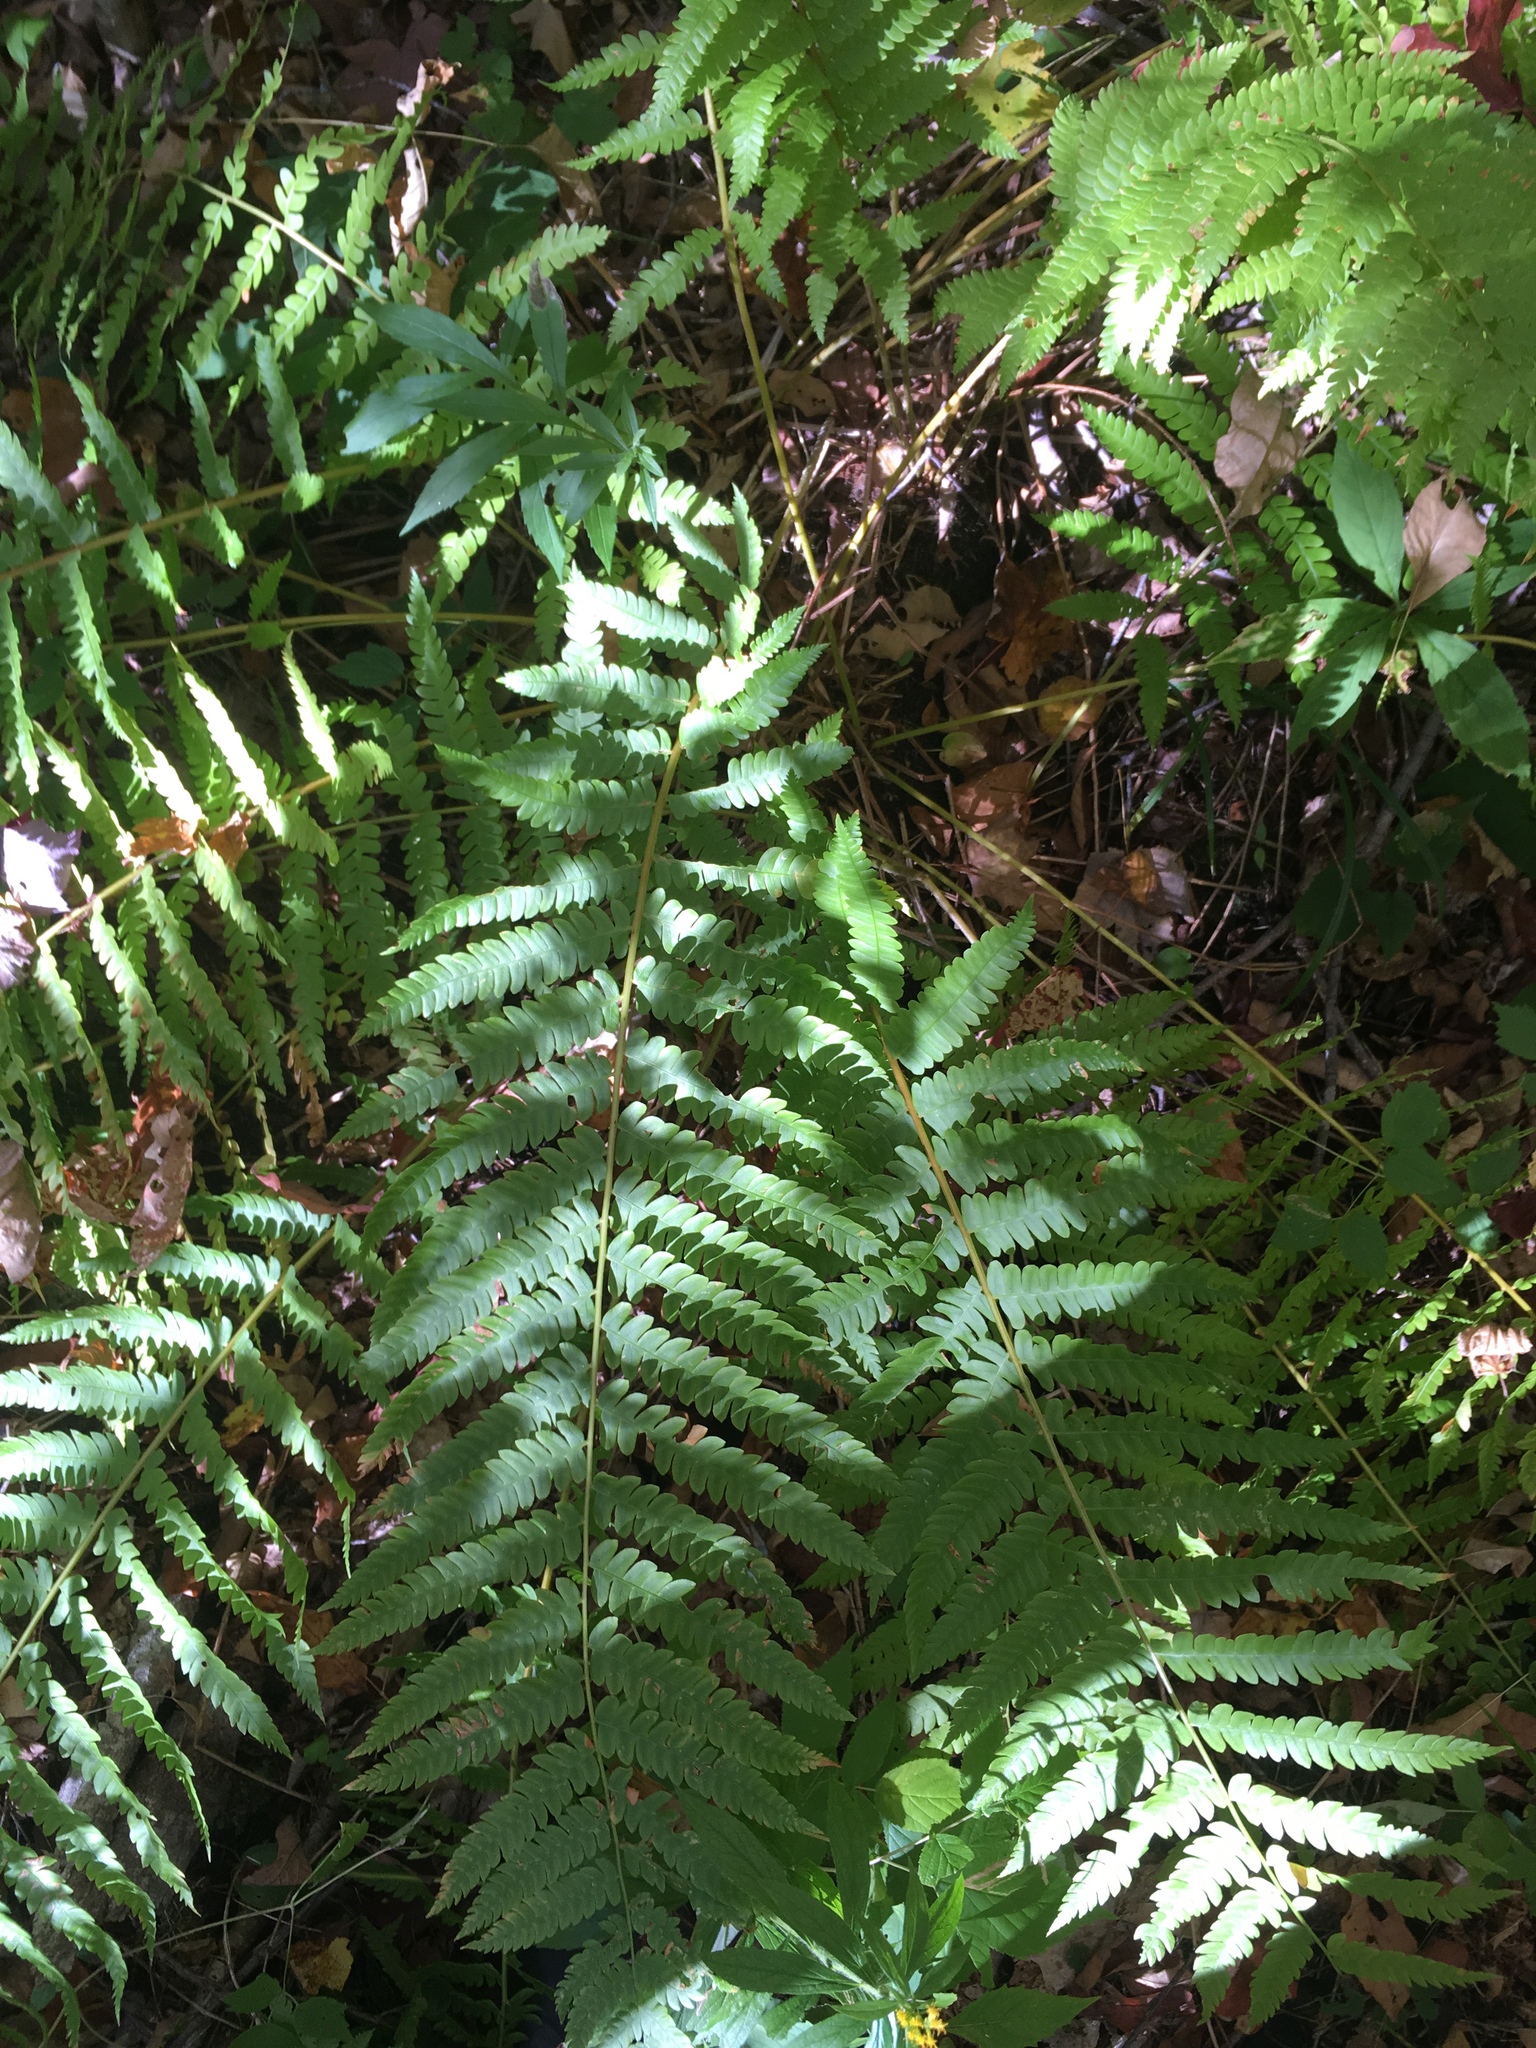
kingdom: Plantae
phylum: Tracheophyta
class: Polypodiopsida
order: Osmundales
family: Osmundaceae
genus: Osmundastrum
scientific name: Osmundastrum cinnamomeum
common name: Cinnamon fern
